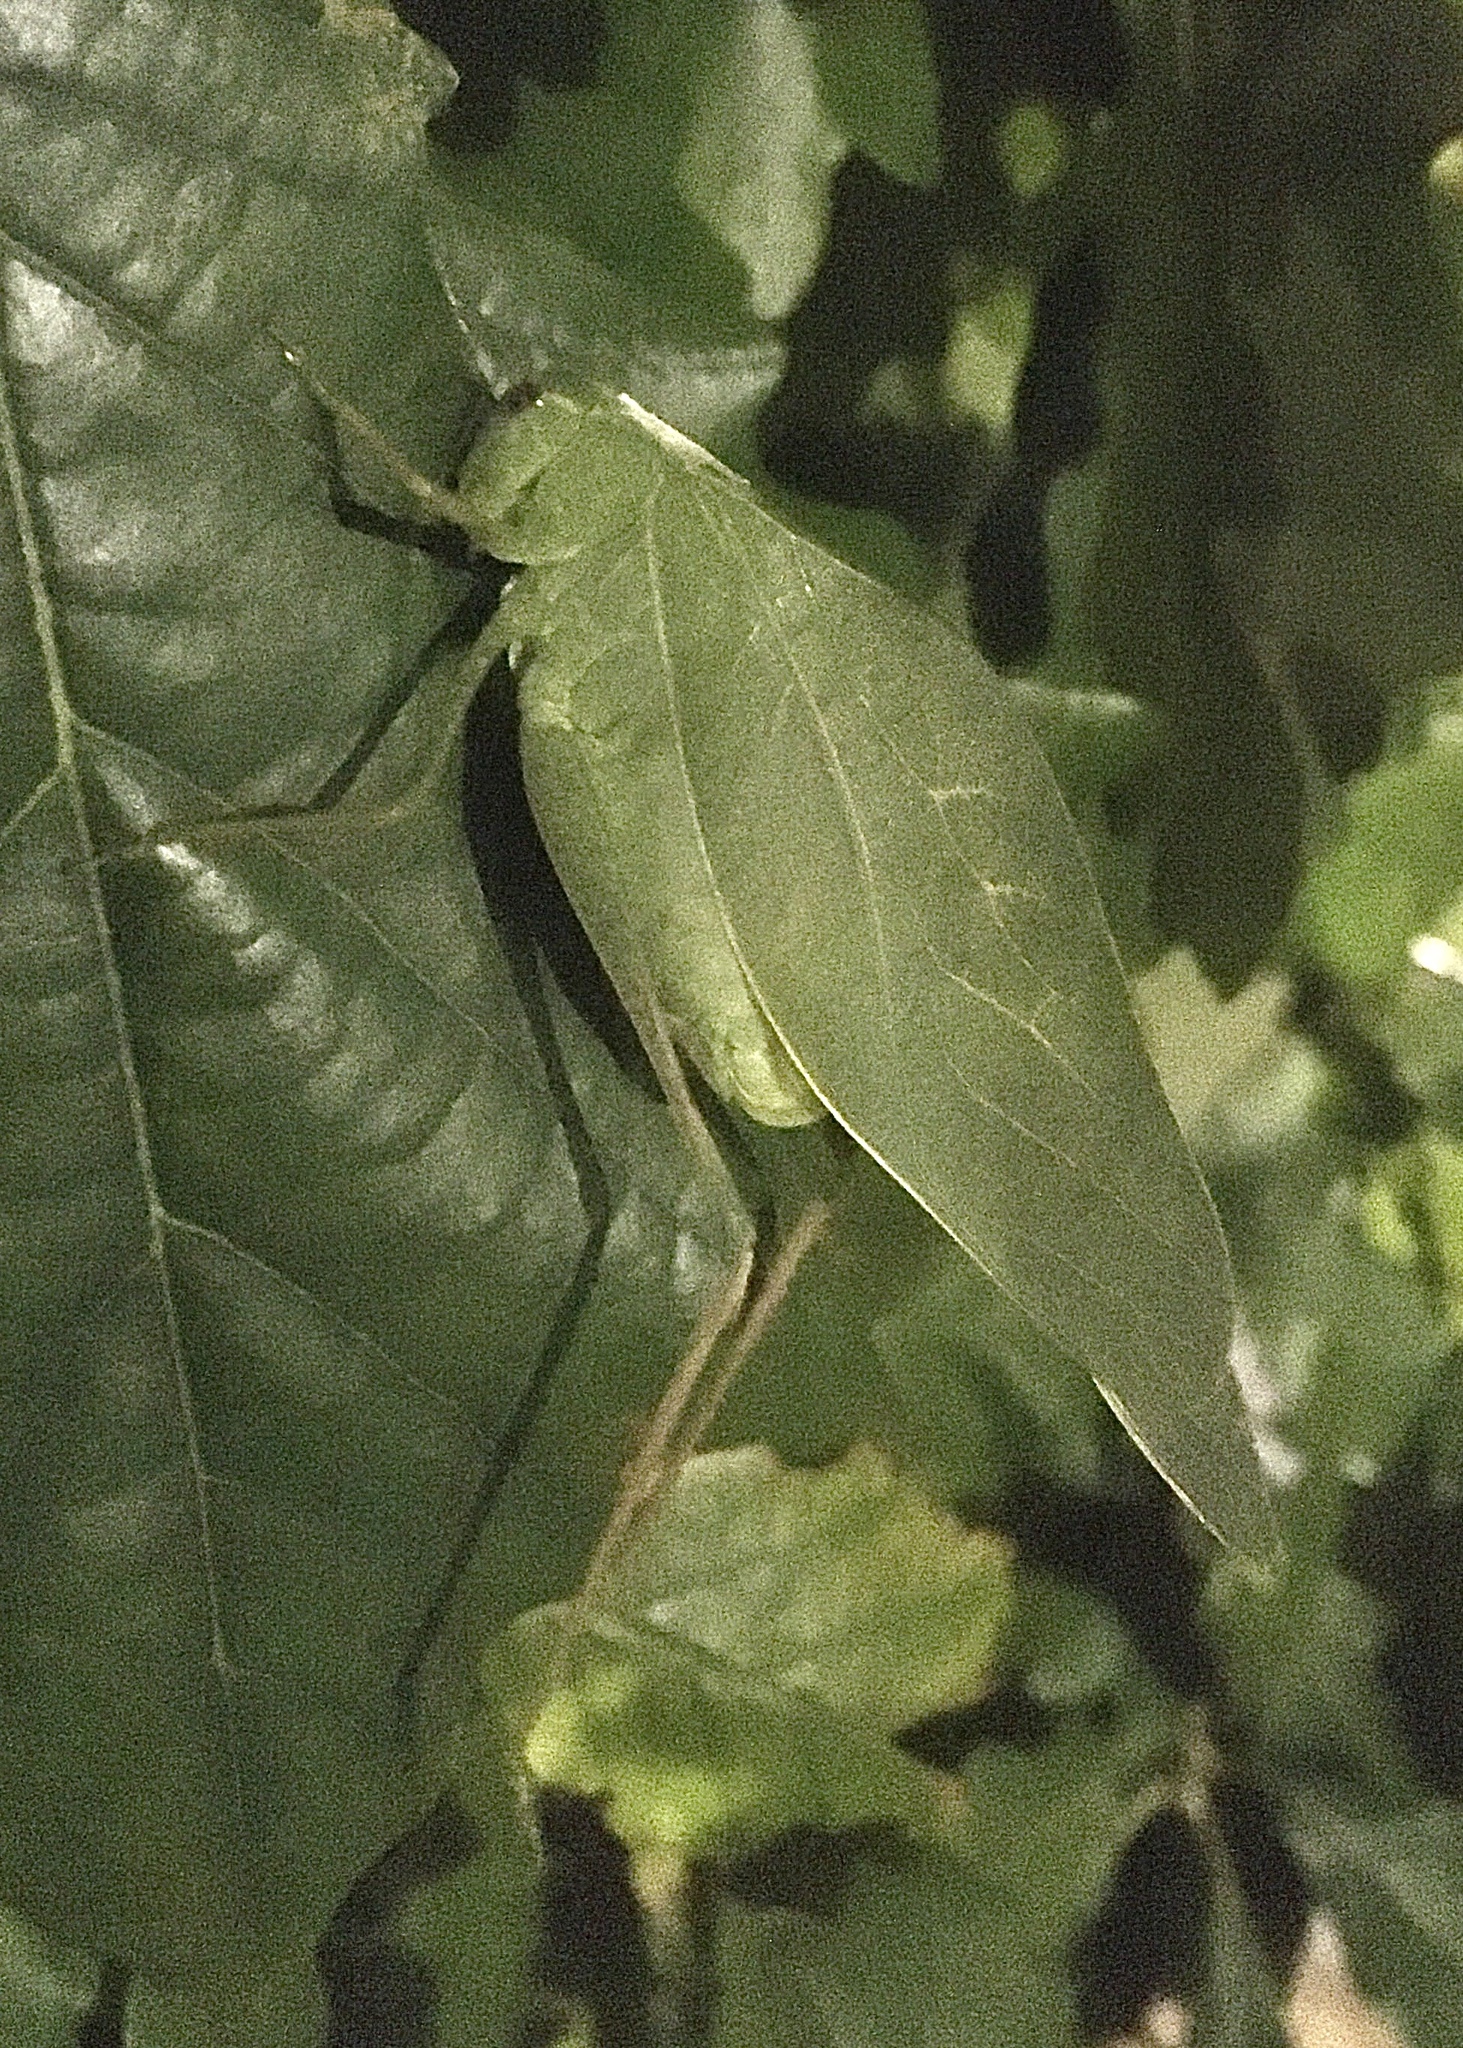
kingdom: Animalia
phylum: Arthropoda
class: Insecta
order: Orthoptera
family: Tettigoniidae
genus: Microcentrum
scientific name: Microcentrum rhombifolium
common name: Broad-winged katydid
